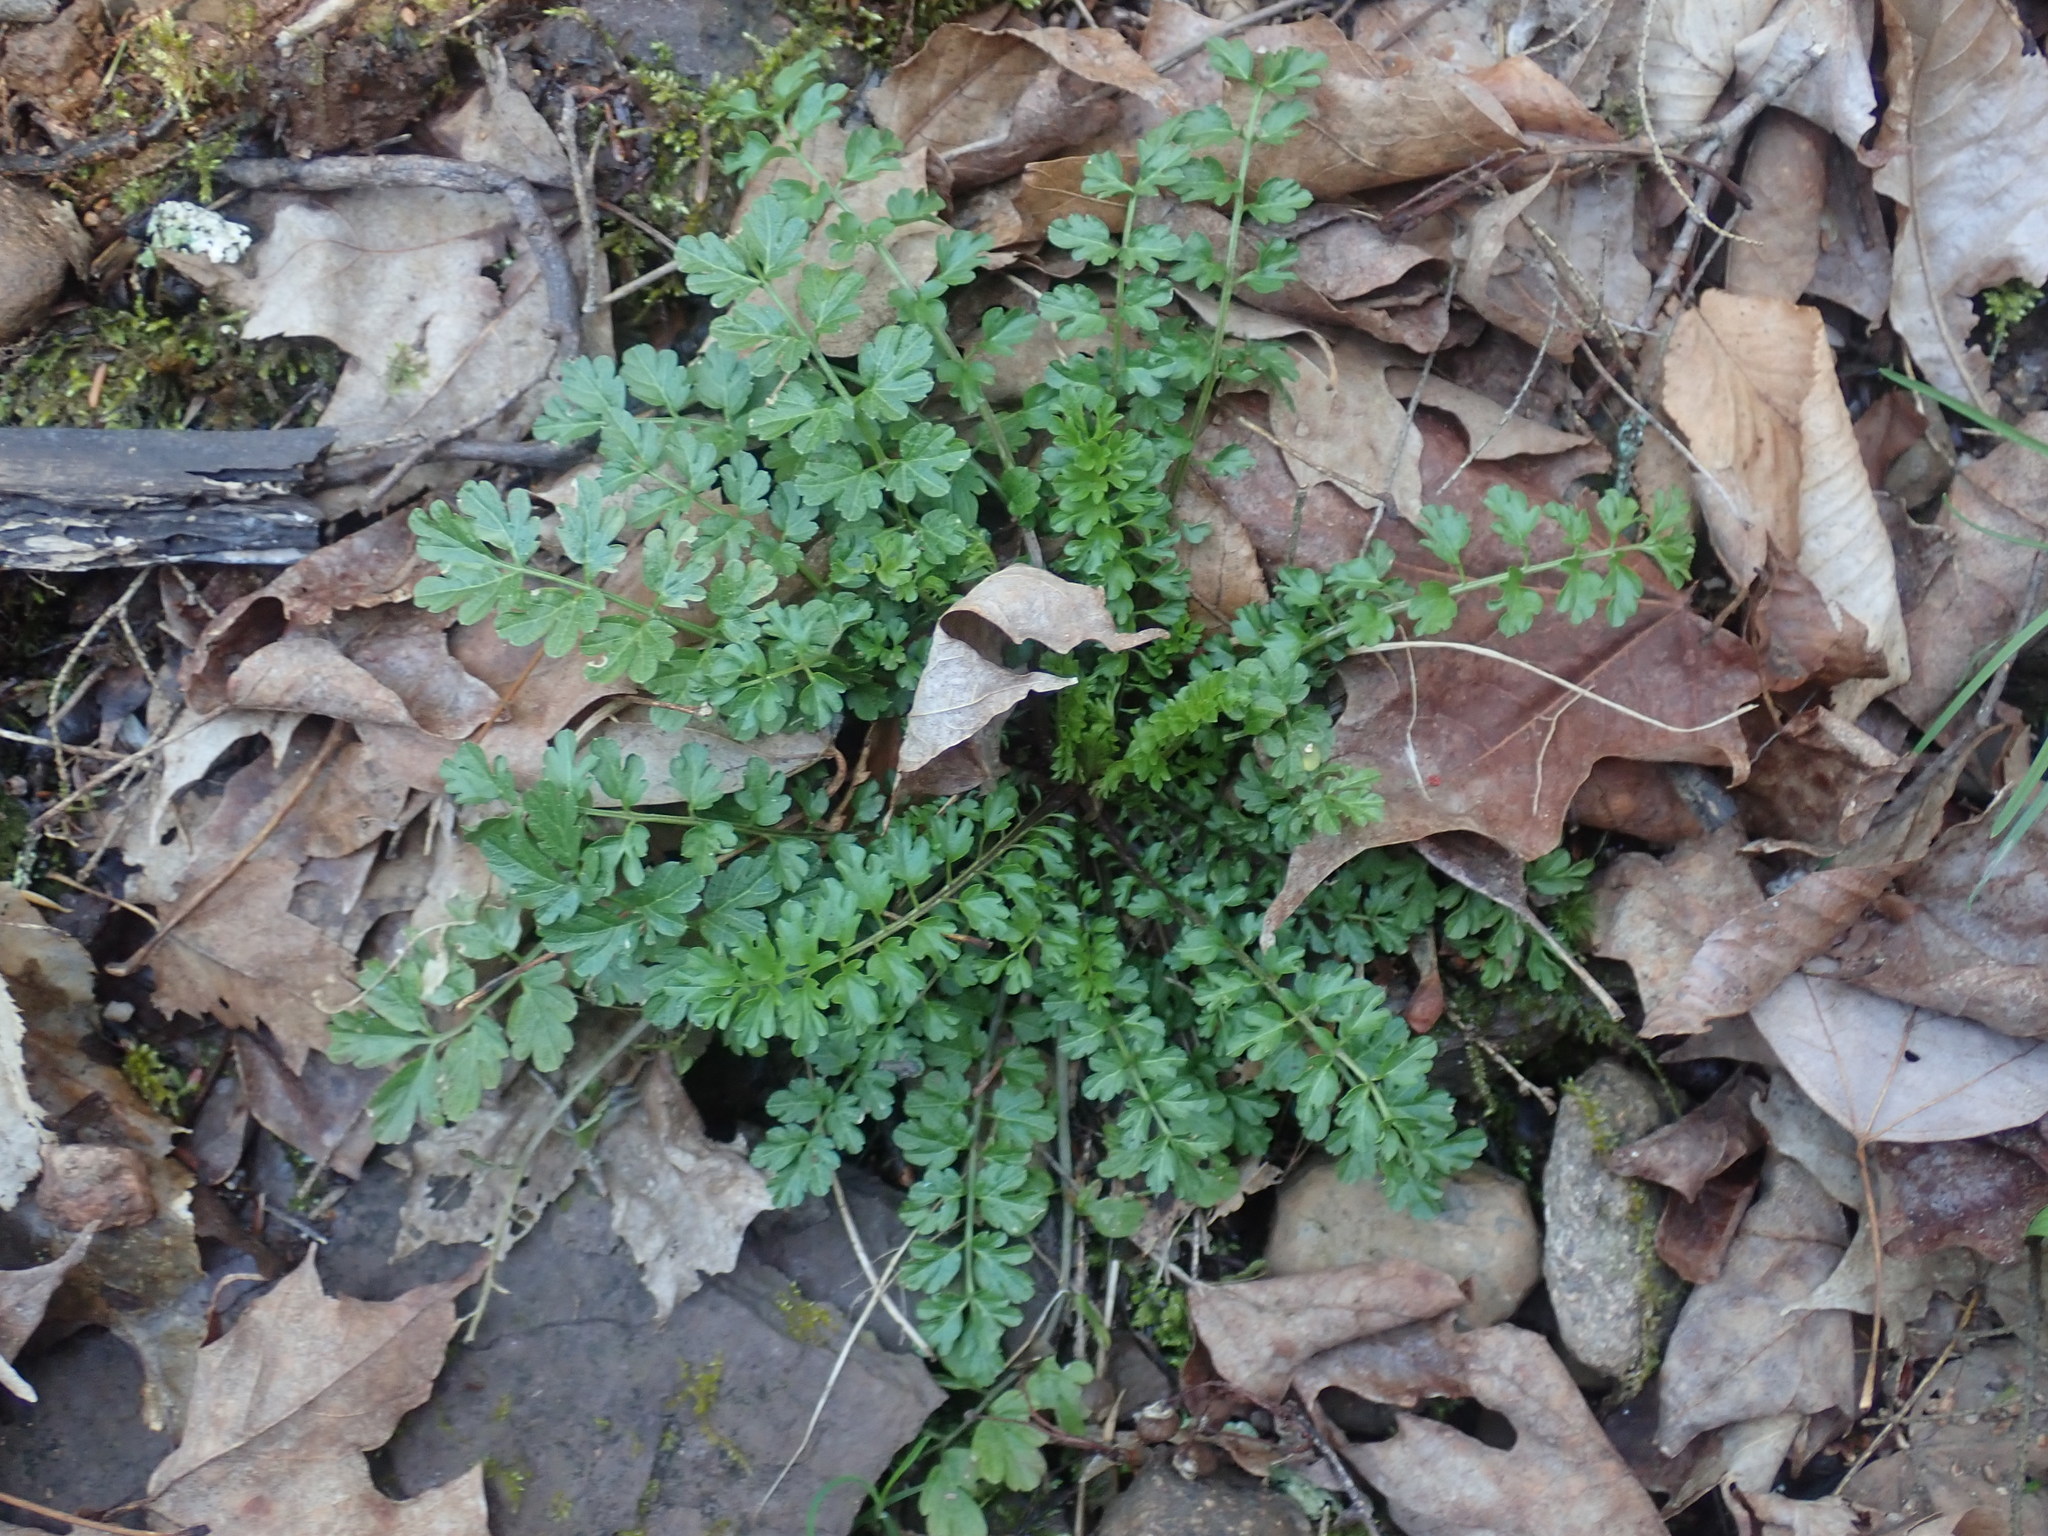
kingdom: Plantae
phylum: Tracheophyta
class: Magnoliopsida
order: Brassicales
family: Brassicaceae
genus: Cardamine
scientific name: Cardamine impatiens
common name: Narrow-leaved bitter-cress
